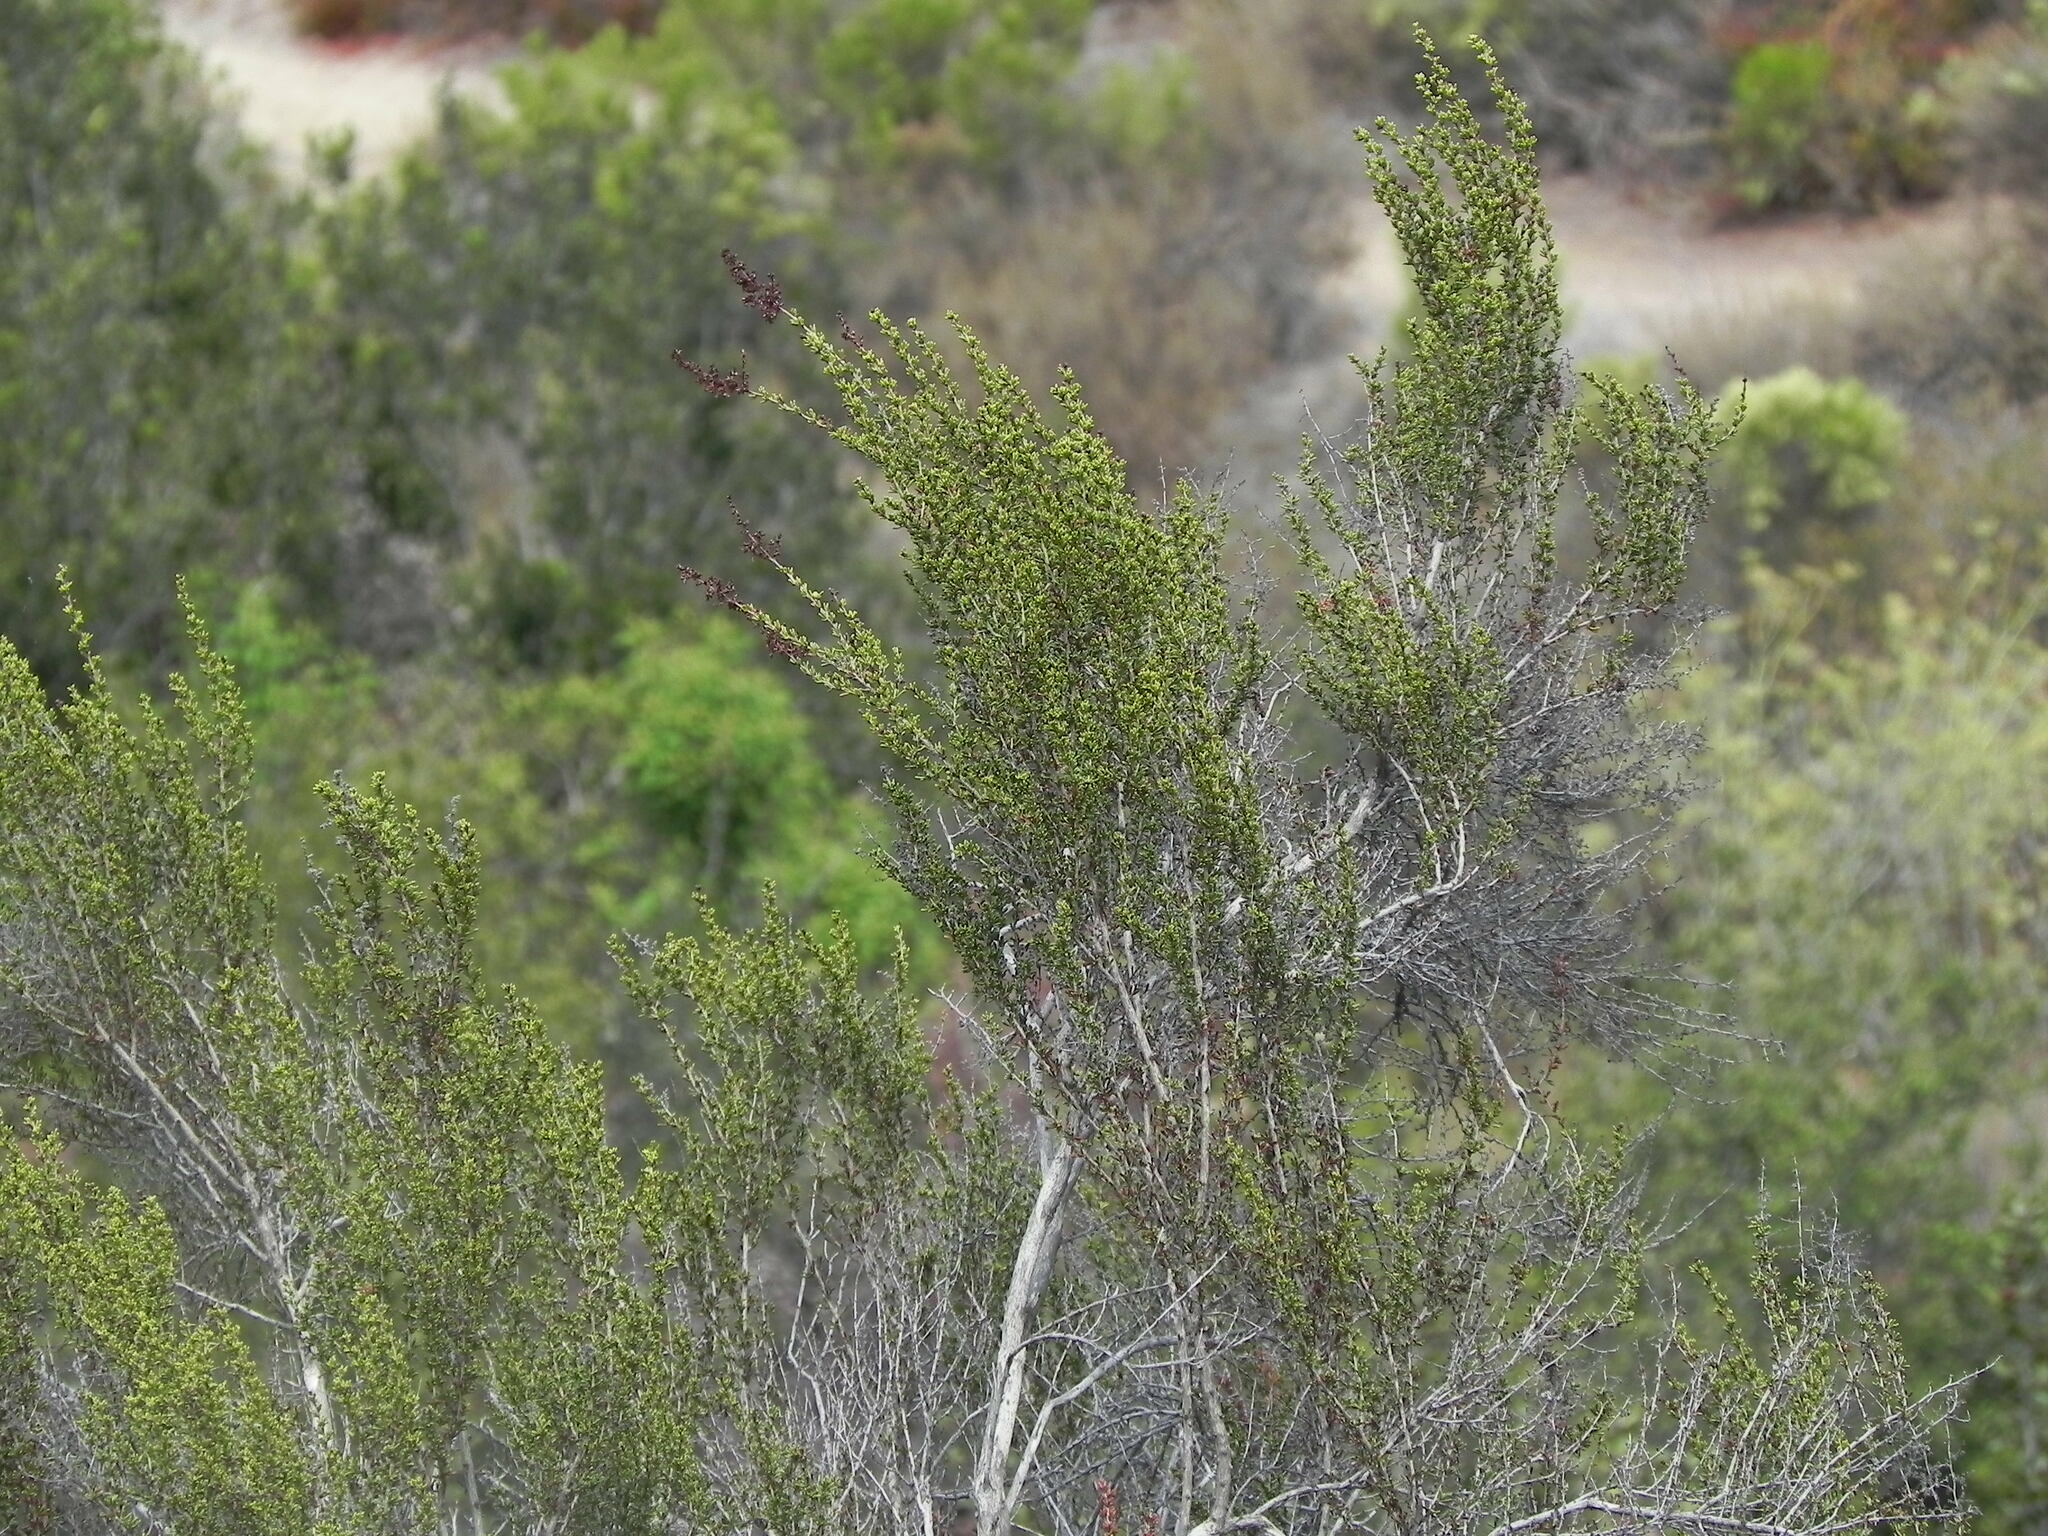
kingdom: Plantae
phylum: Tracheophyta
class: Magnoliopsida
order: Rosales
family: Rosaceae
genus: Adenostoma
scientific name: Adenostoma fasciculatum
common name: Chamise
